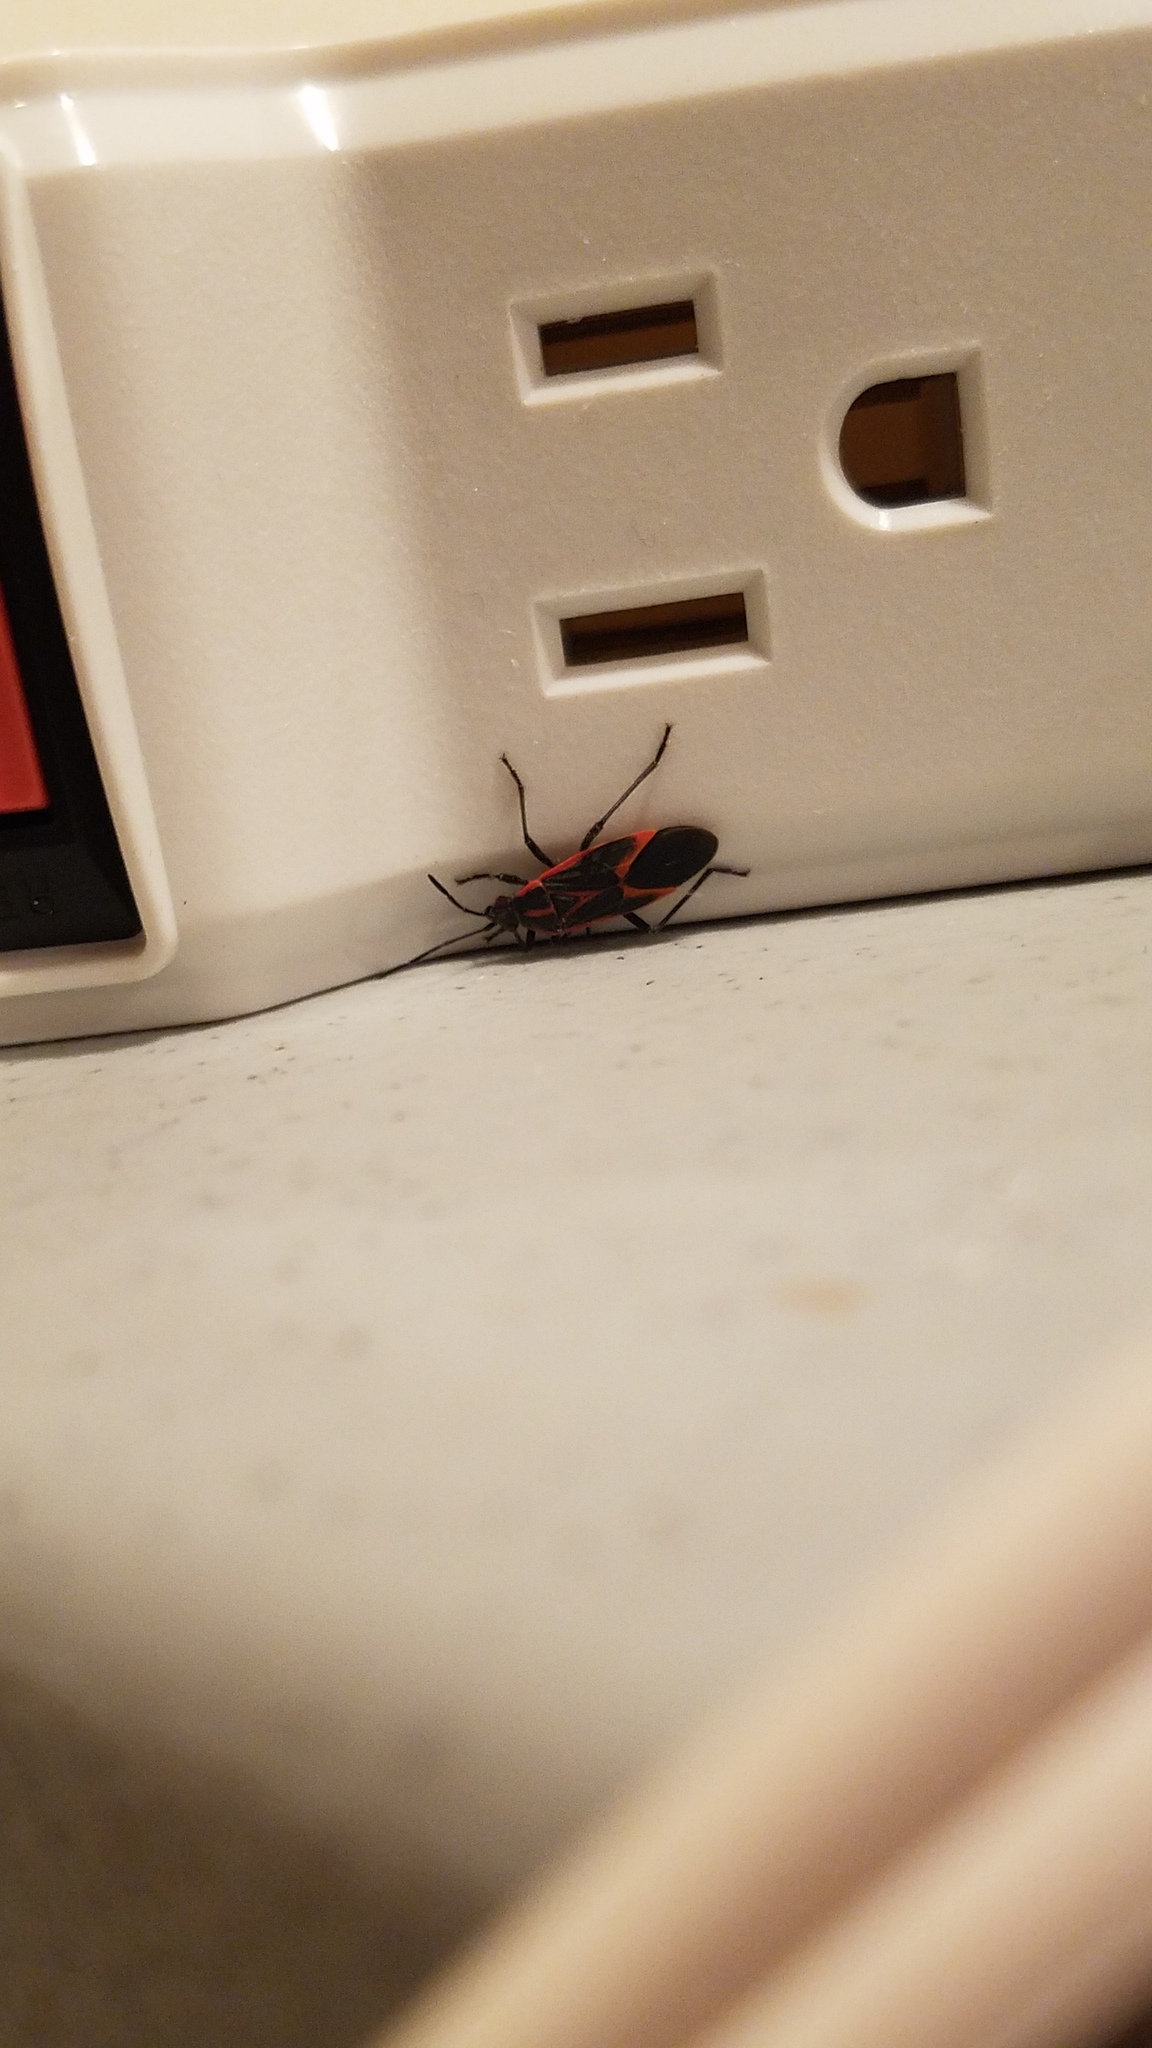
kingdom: Animalia
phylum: Arthropoda
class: Insecta
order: Hemiptera
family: Rhopalidae
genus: Boisea
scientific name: Boisea trivittata
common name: Boxelder bug
